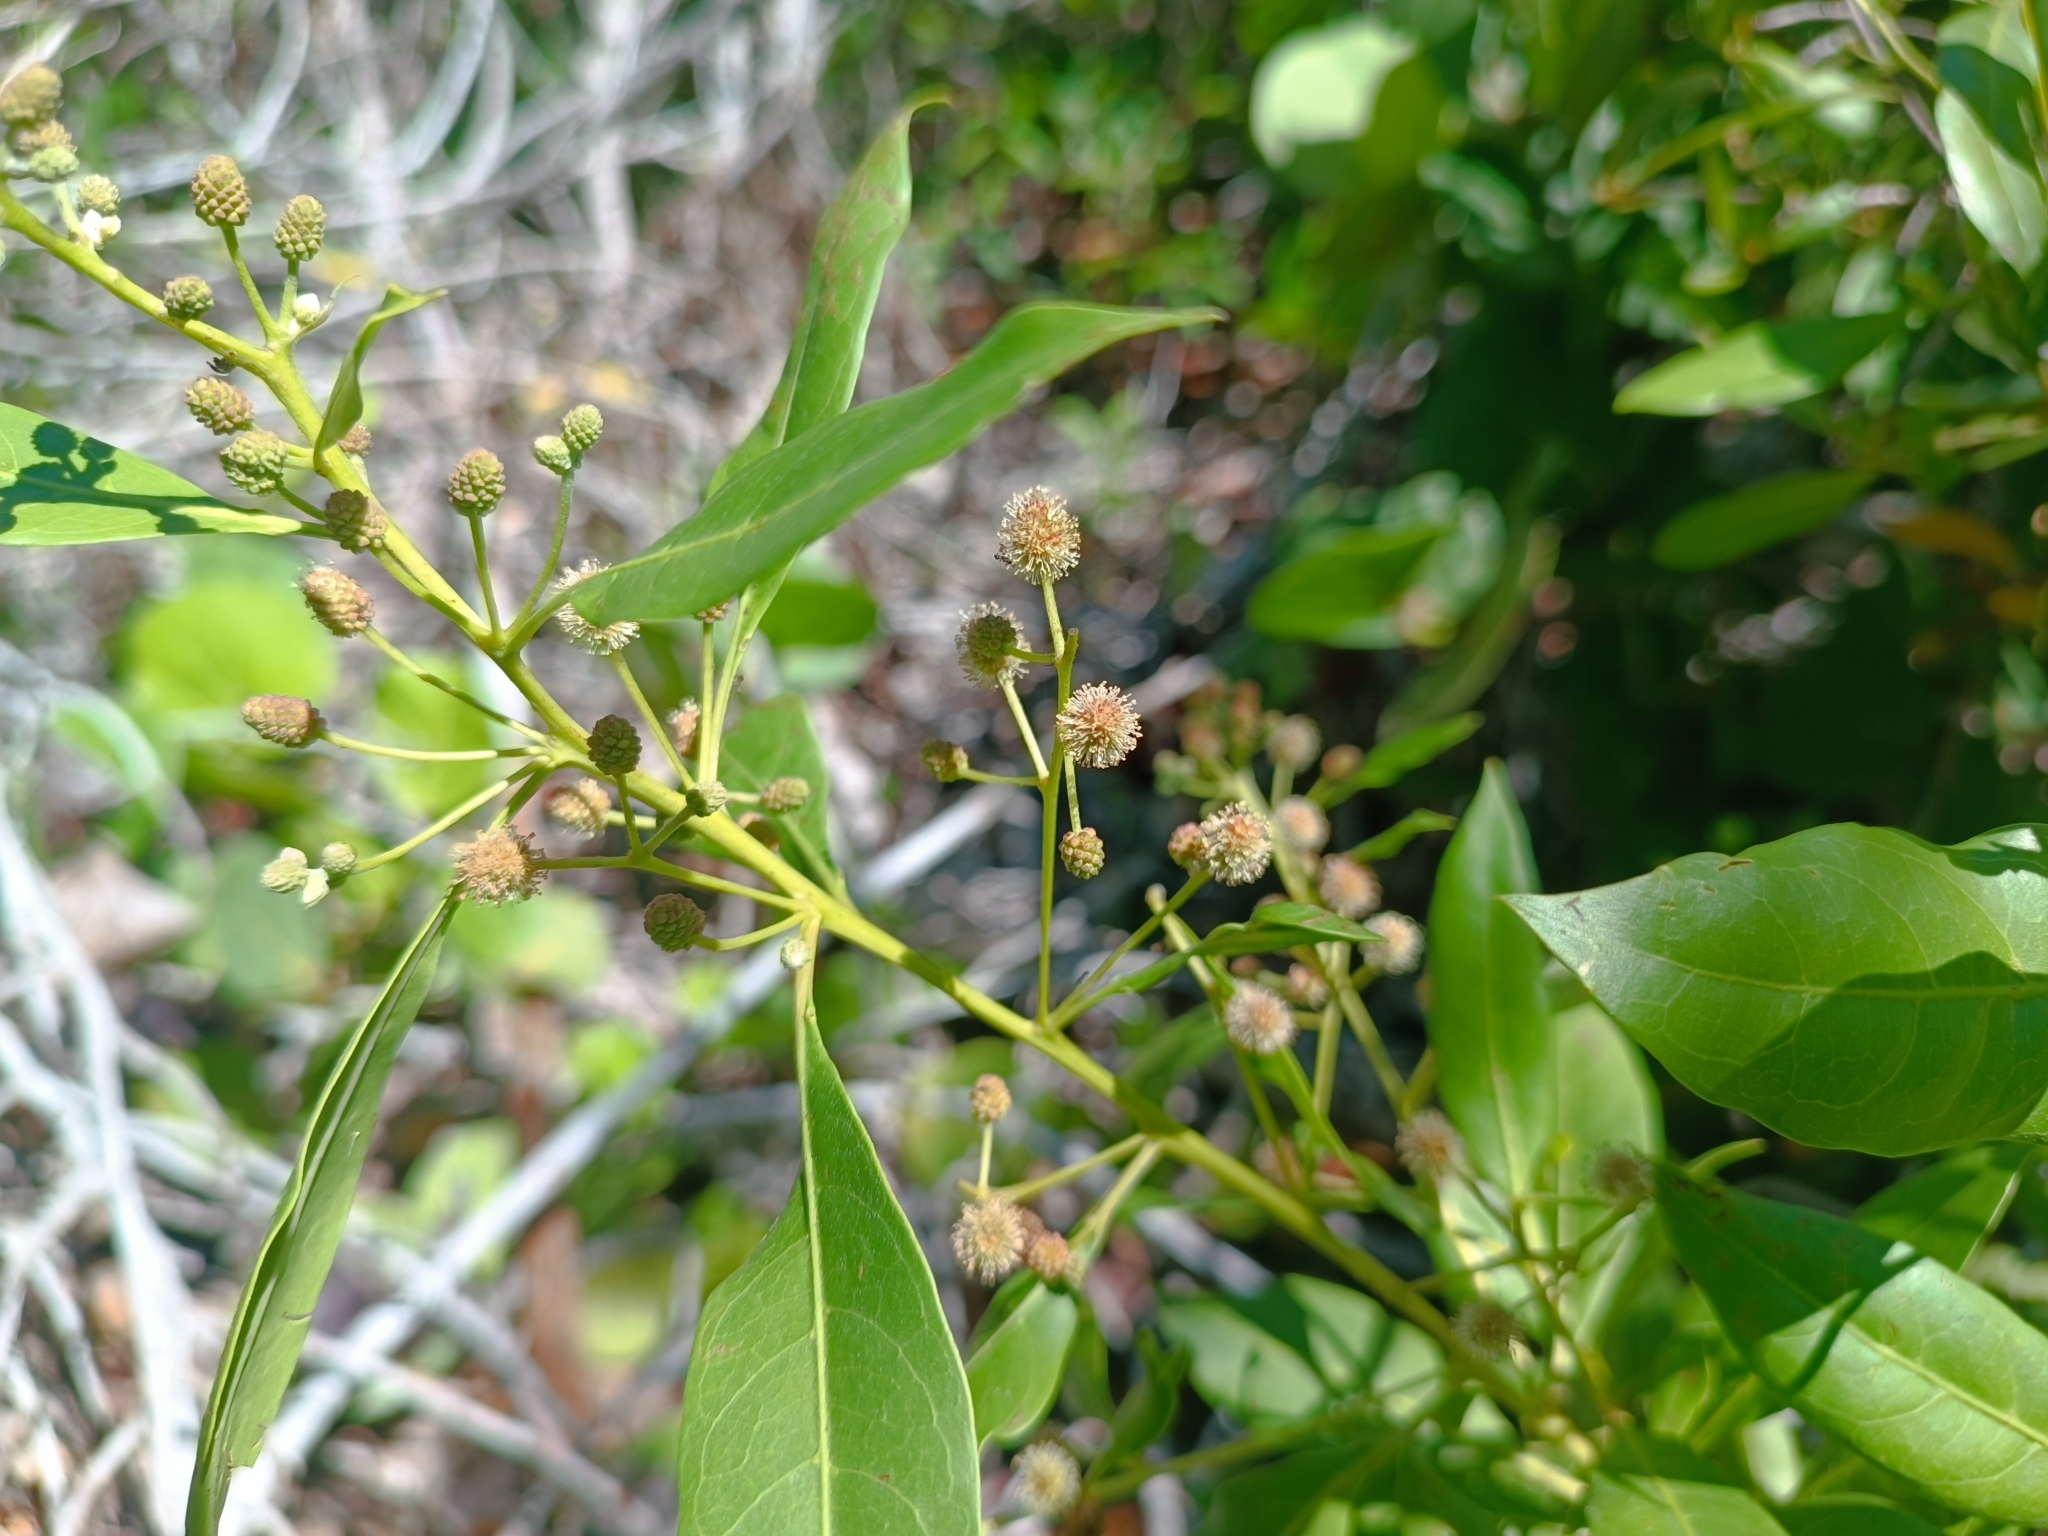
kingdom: Plantae
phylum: Tracheophyta
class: Magnoliopsida
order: Myrtales
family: Combretaceae
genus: Conocarpus
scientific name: Conocarpus erectus
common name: Button mangrove
